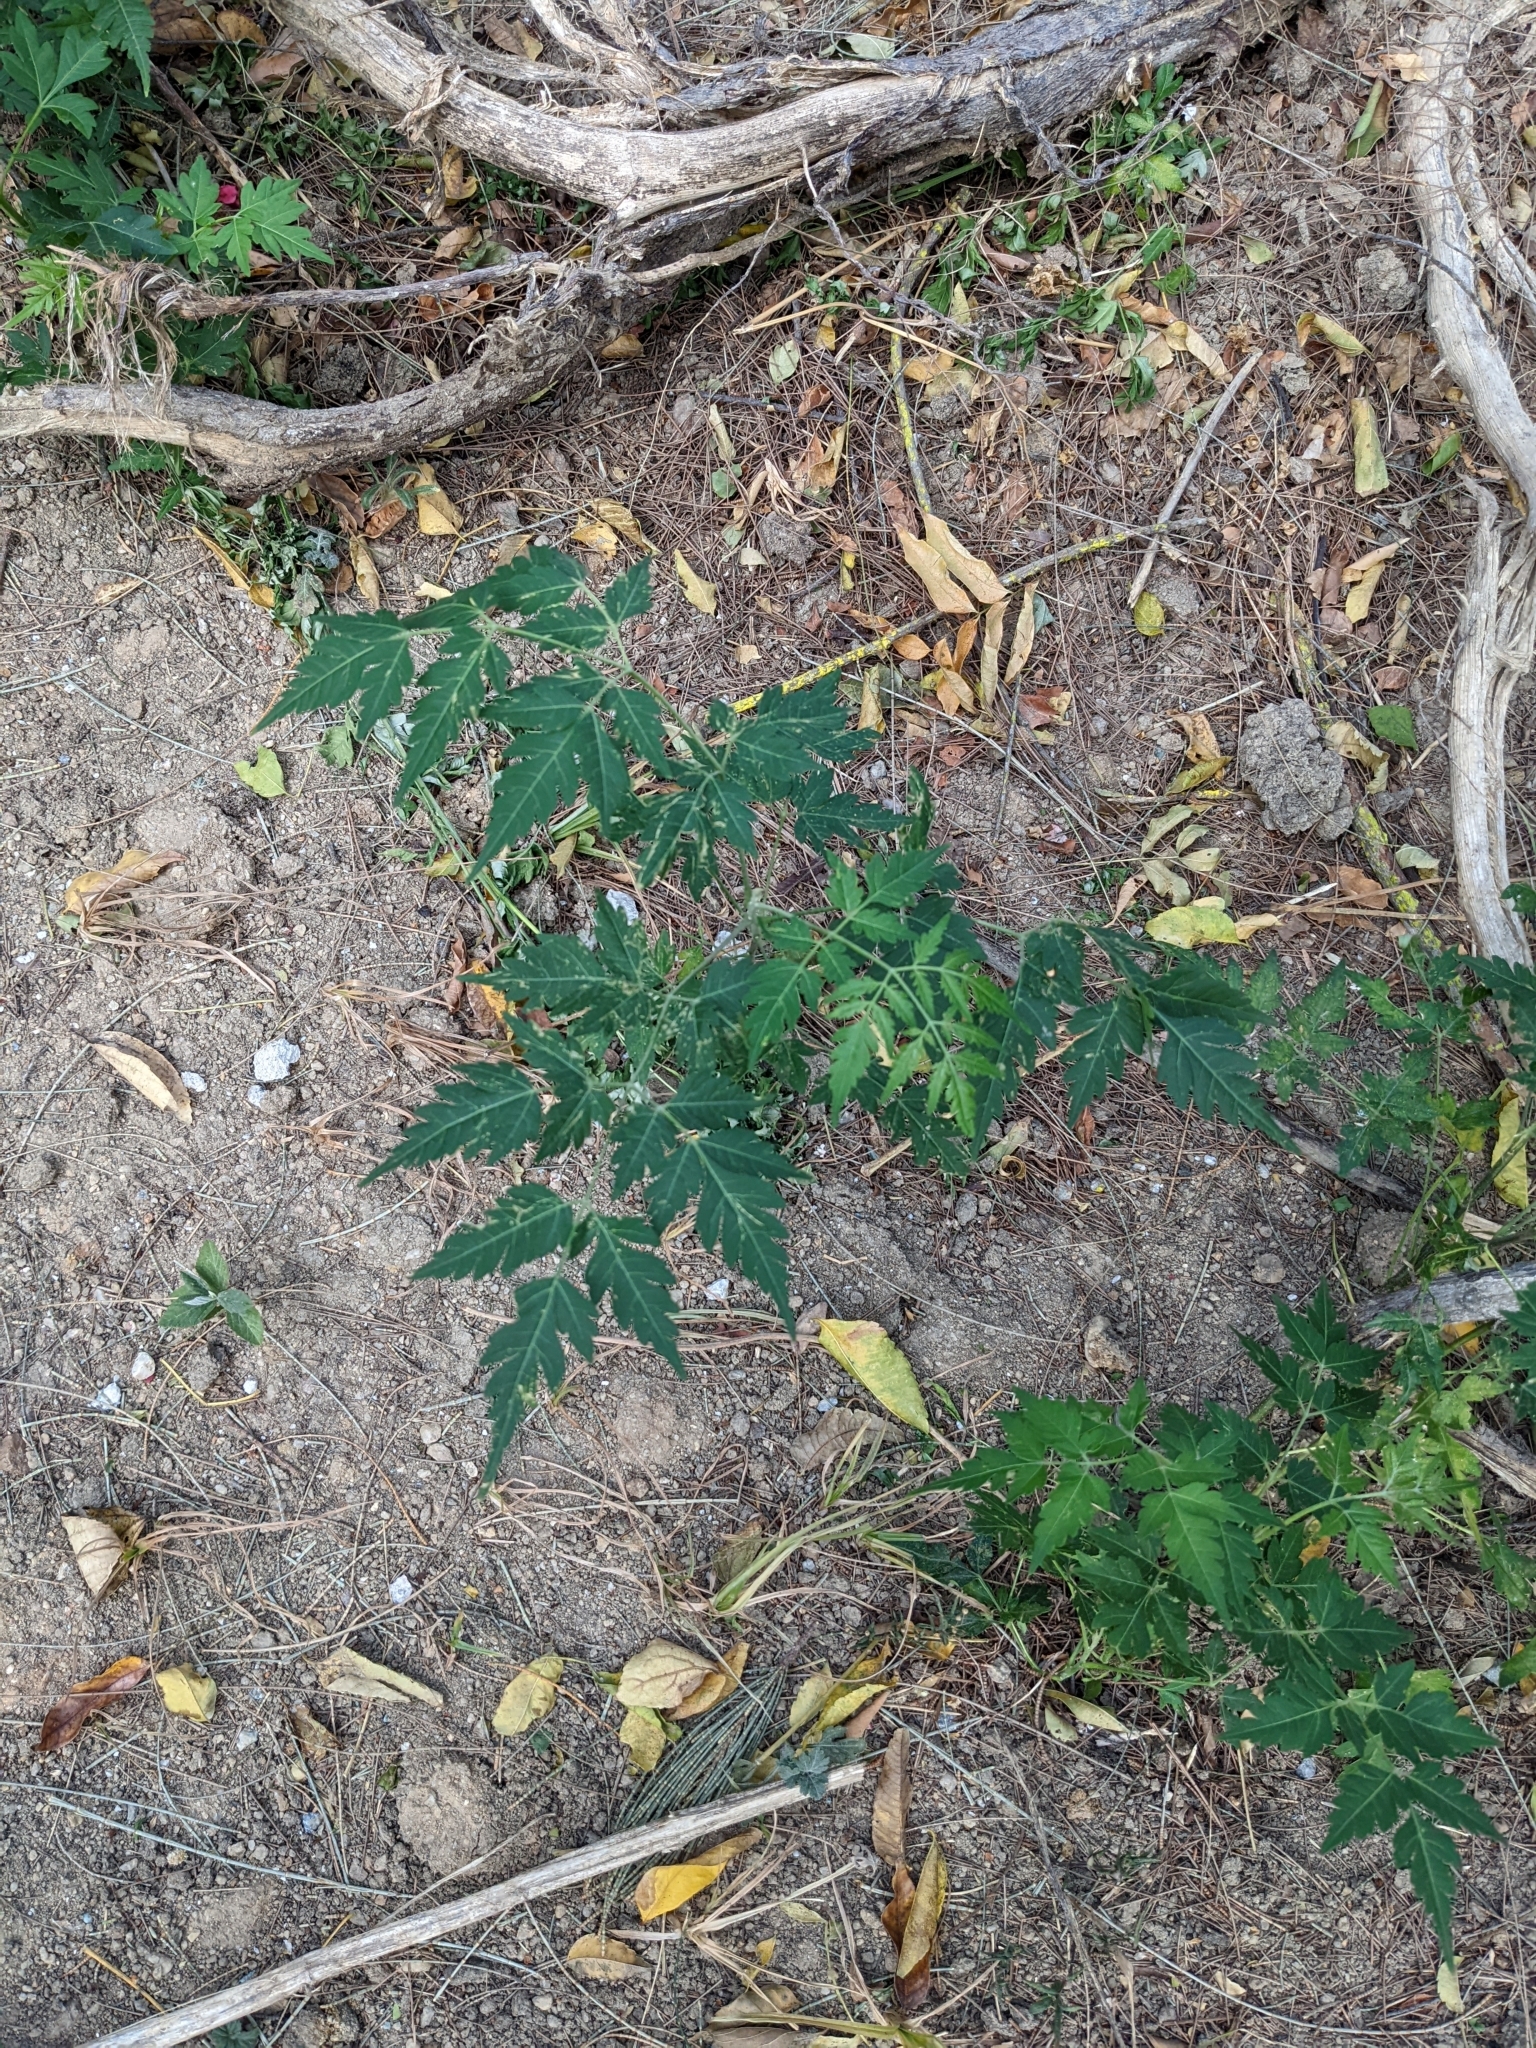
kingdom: Plantae
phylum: Tracheophyta
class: Magnoliopsida
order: Sapindales
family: Meliaceae
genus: Melia
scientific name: Melia azedarach
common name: Chinaberrytree
